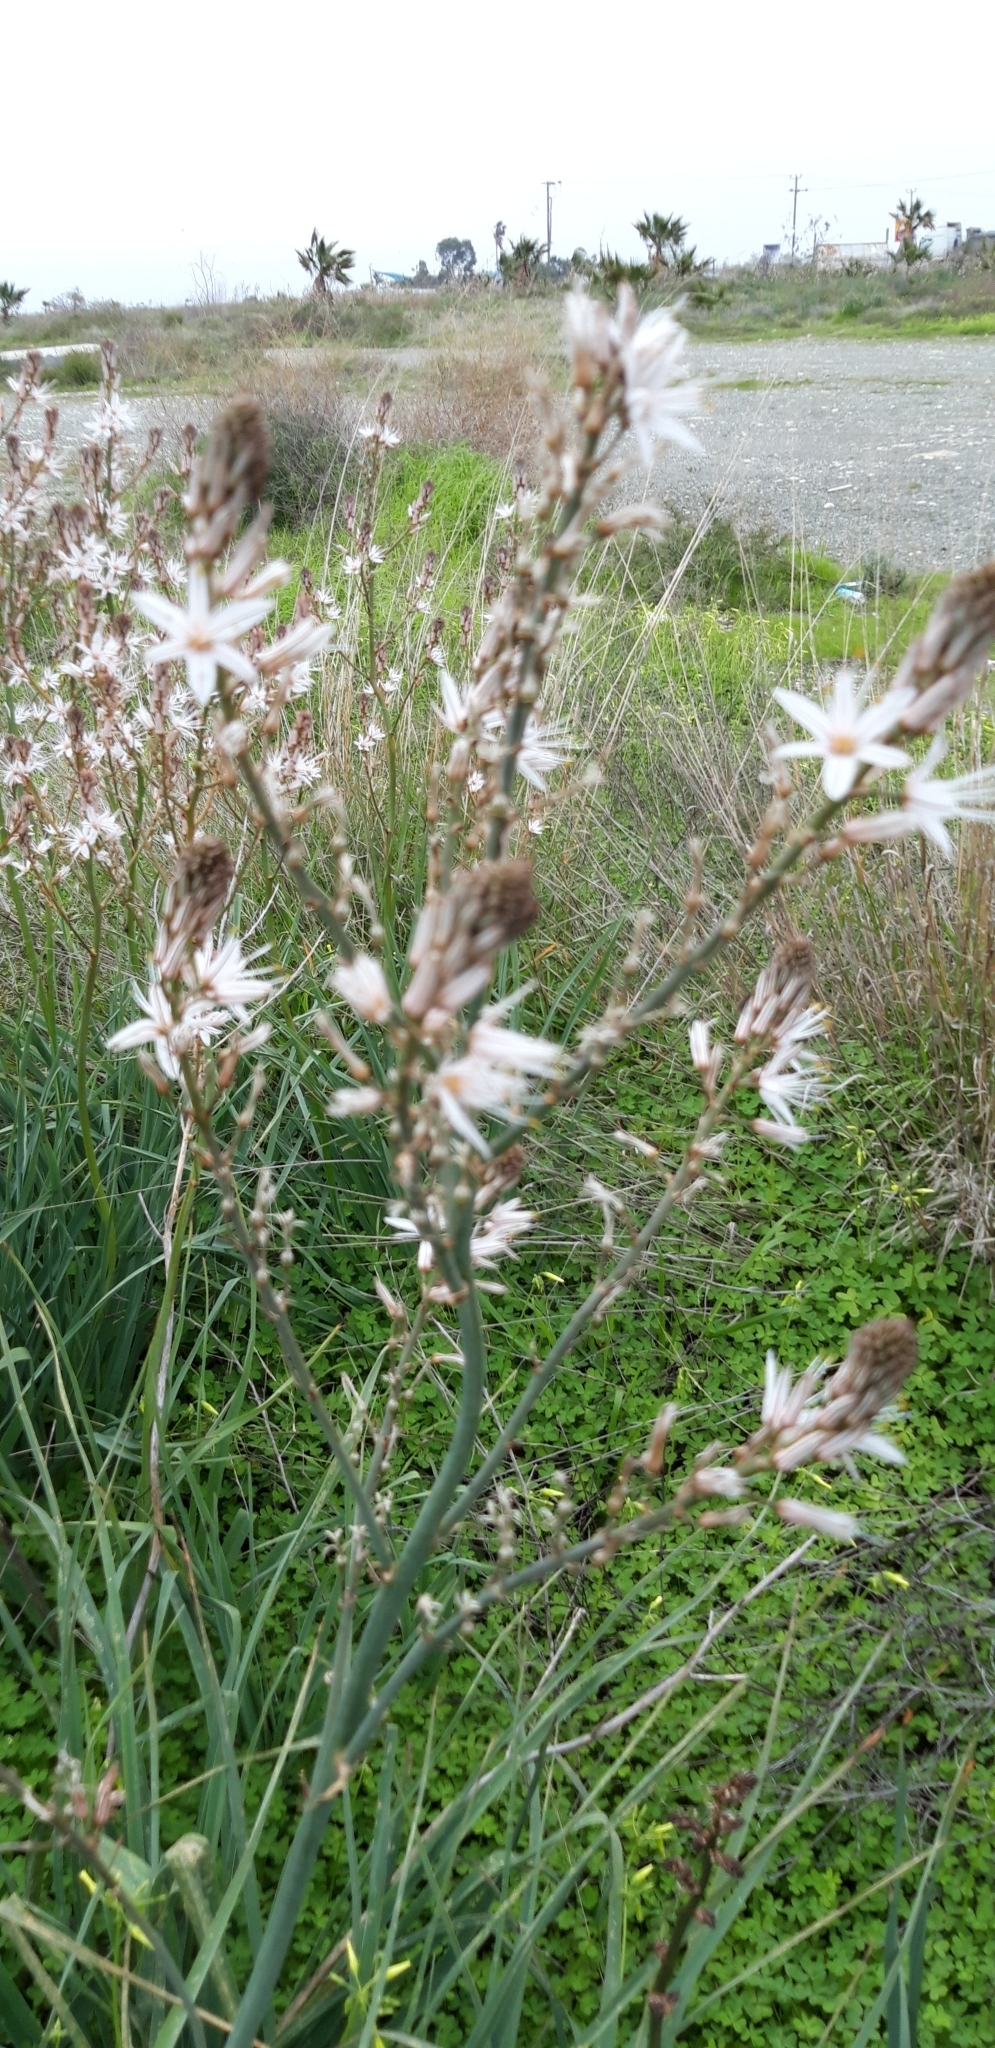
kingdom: Plantae
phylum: Tracheophyta
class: Liliopsida
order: Asparagales
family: Asphodelaceae
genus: Asphodelus
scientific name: Asphodelus ramosus
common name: Silverrod
